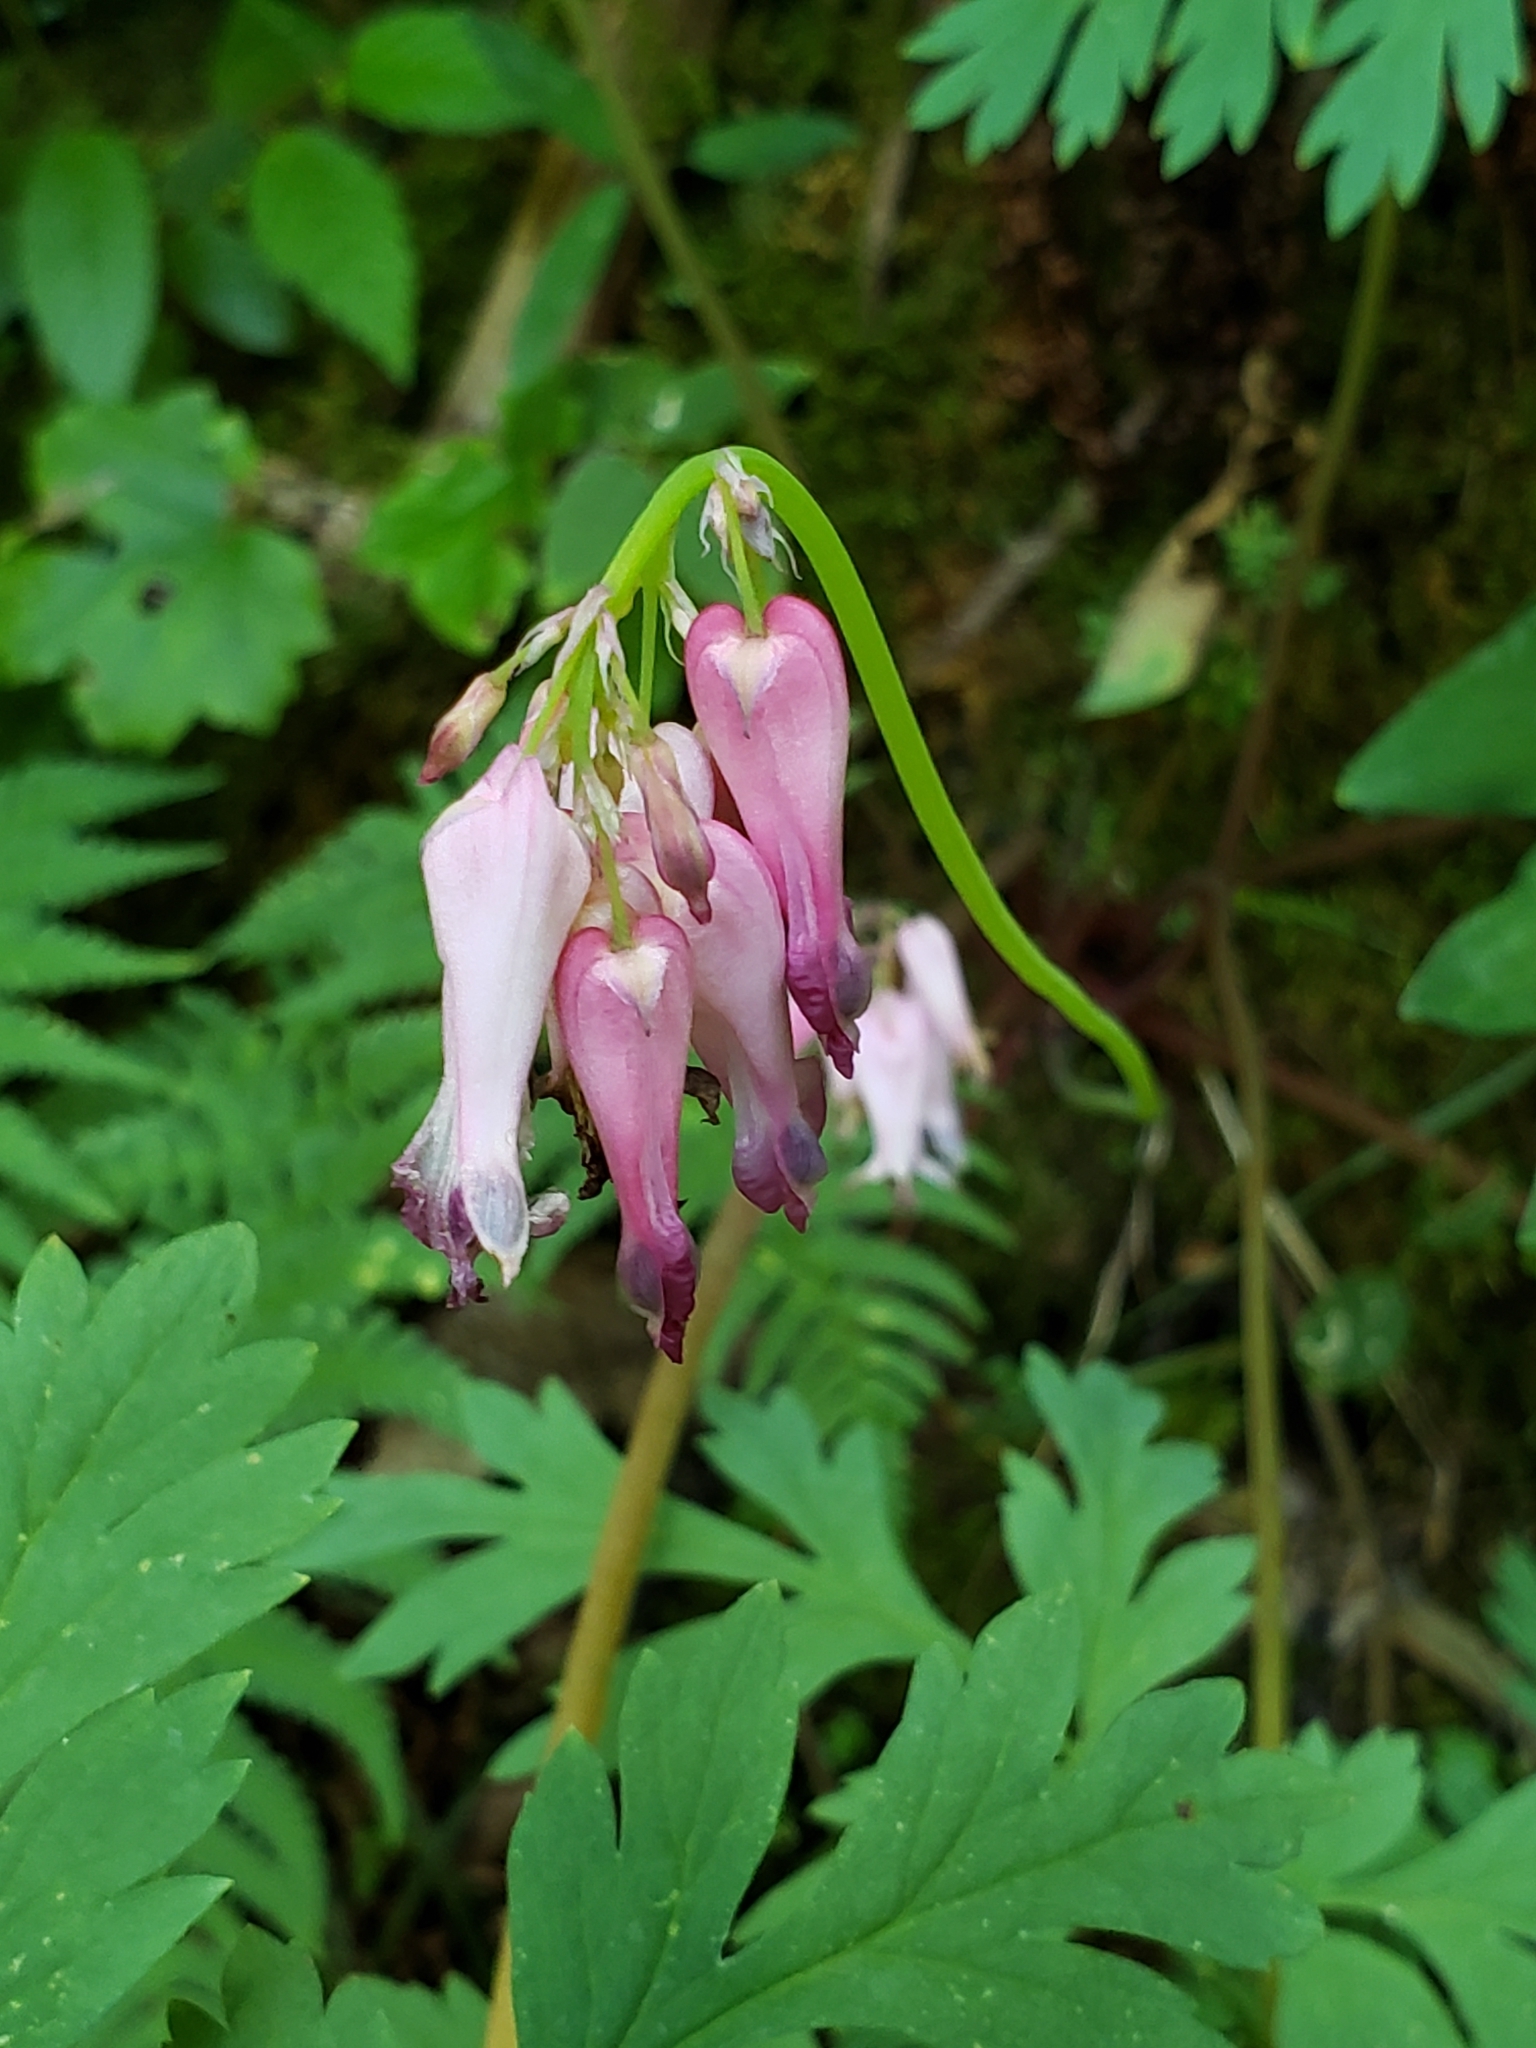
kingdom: Plantae
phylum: Tracheophyta
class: Magnoliopsida
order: Ranunculales
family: Papaveraceae
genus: Dicentra
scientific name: Dicentra eximia
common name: Turkey-corn
